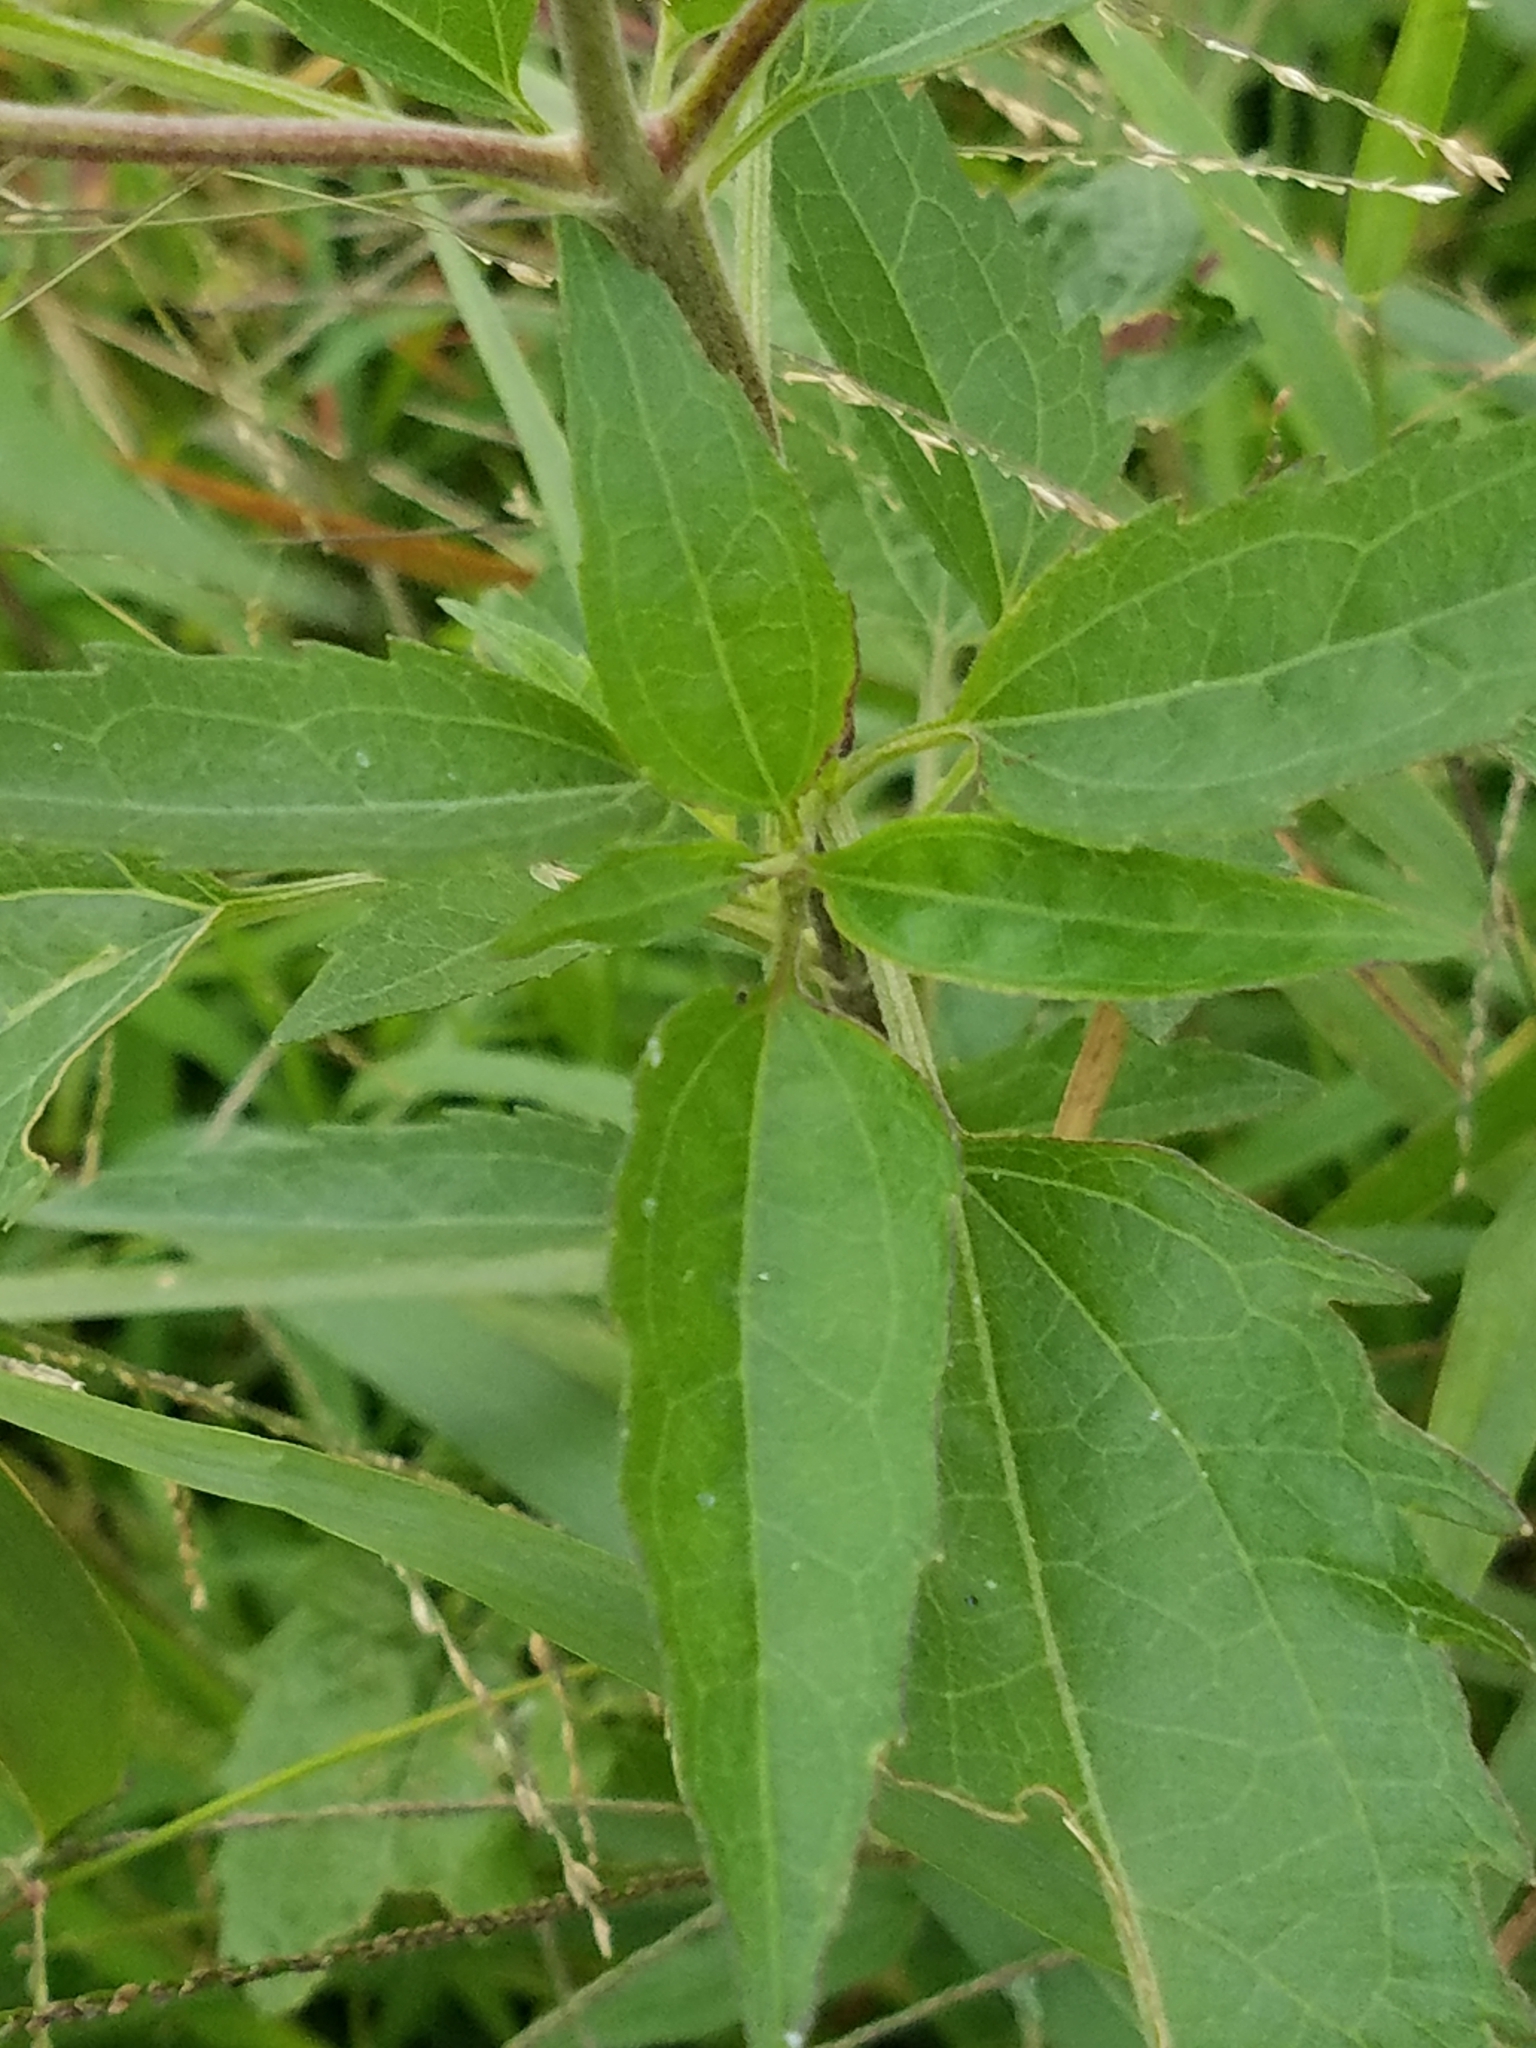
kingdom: Plantae
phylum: Tracheophyta
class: Magnoliopsida
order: Asterales
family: Asteraceae
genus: Eupatorium
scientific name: Eupatorium serotinum
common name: Late boneset
